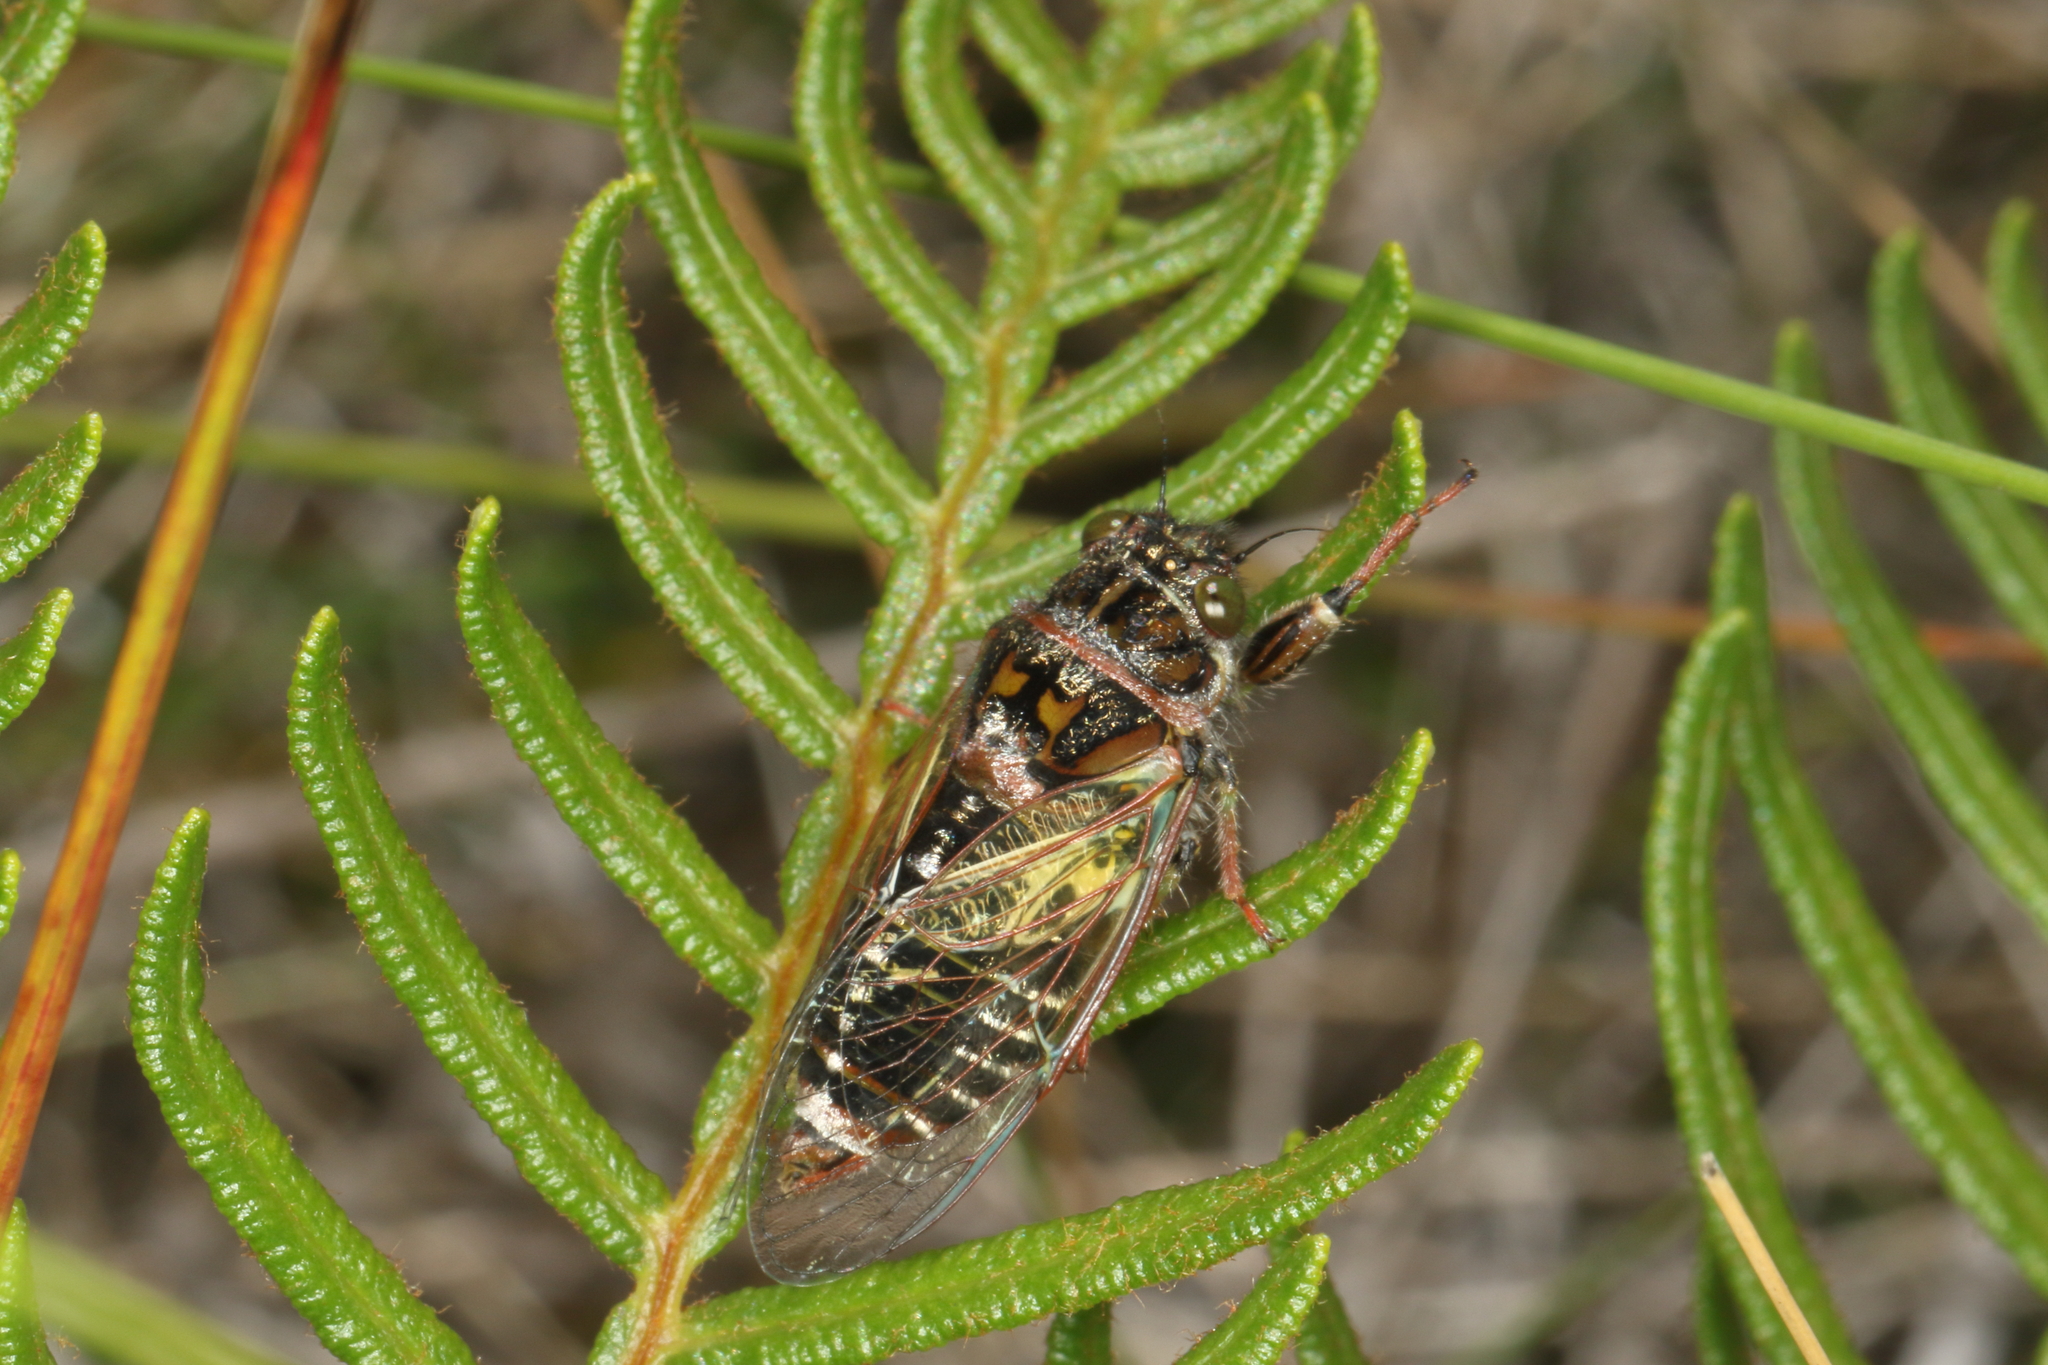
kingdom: Animalia
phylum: Arthropoda
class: Insecta
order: Hemiptera
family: Cicadidae
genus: Maoricicada
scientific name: Maoricicada campbelli
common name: Campbell's cicada
